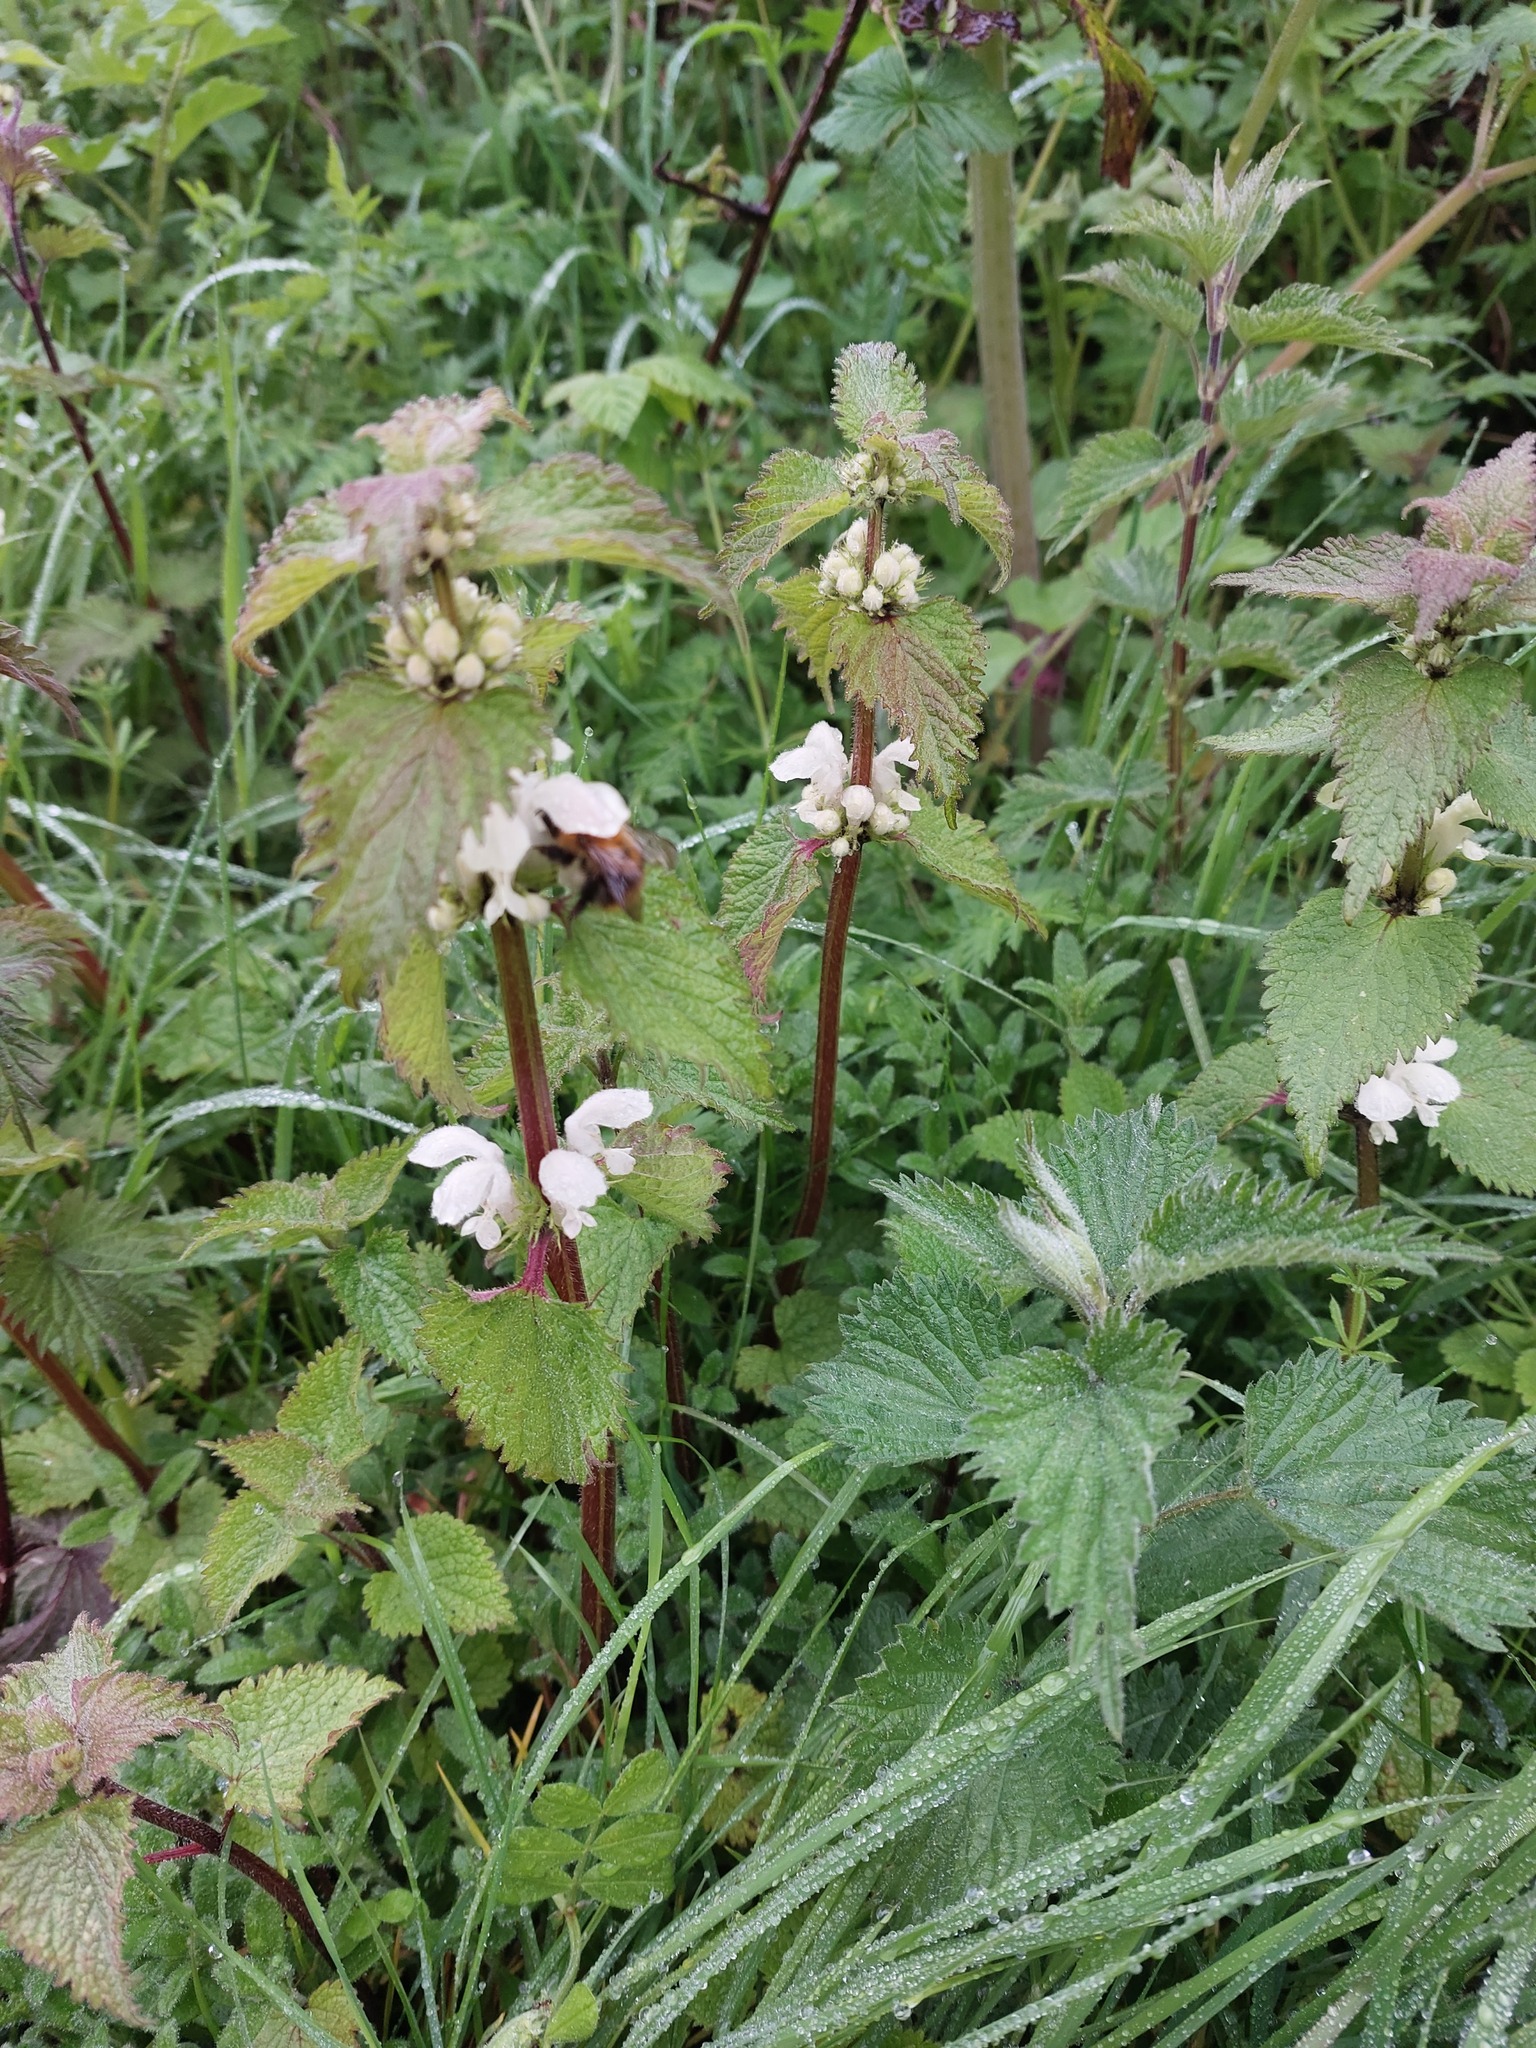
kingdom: Plantae
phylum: Tracheophyta
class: Magnoliopsida
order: Lamiales
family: Lamiaceae
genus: Lamium
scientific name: Lamium album
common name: White dead-nettle
